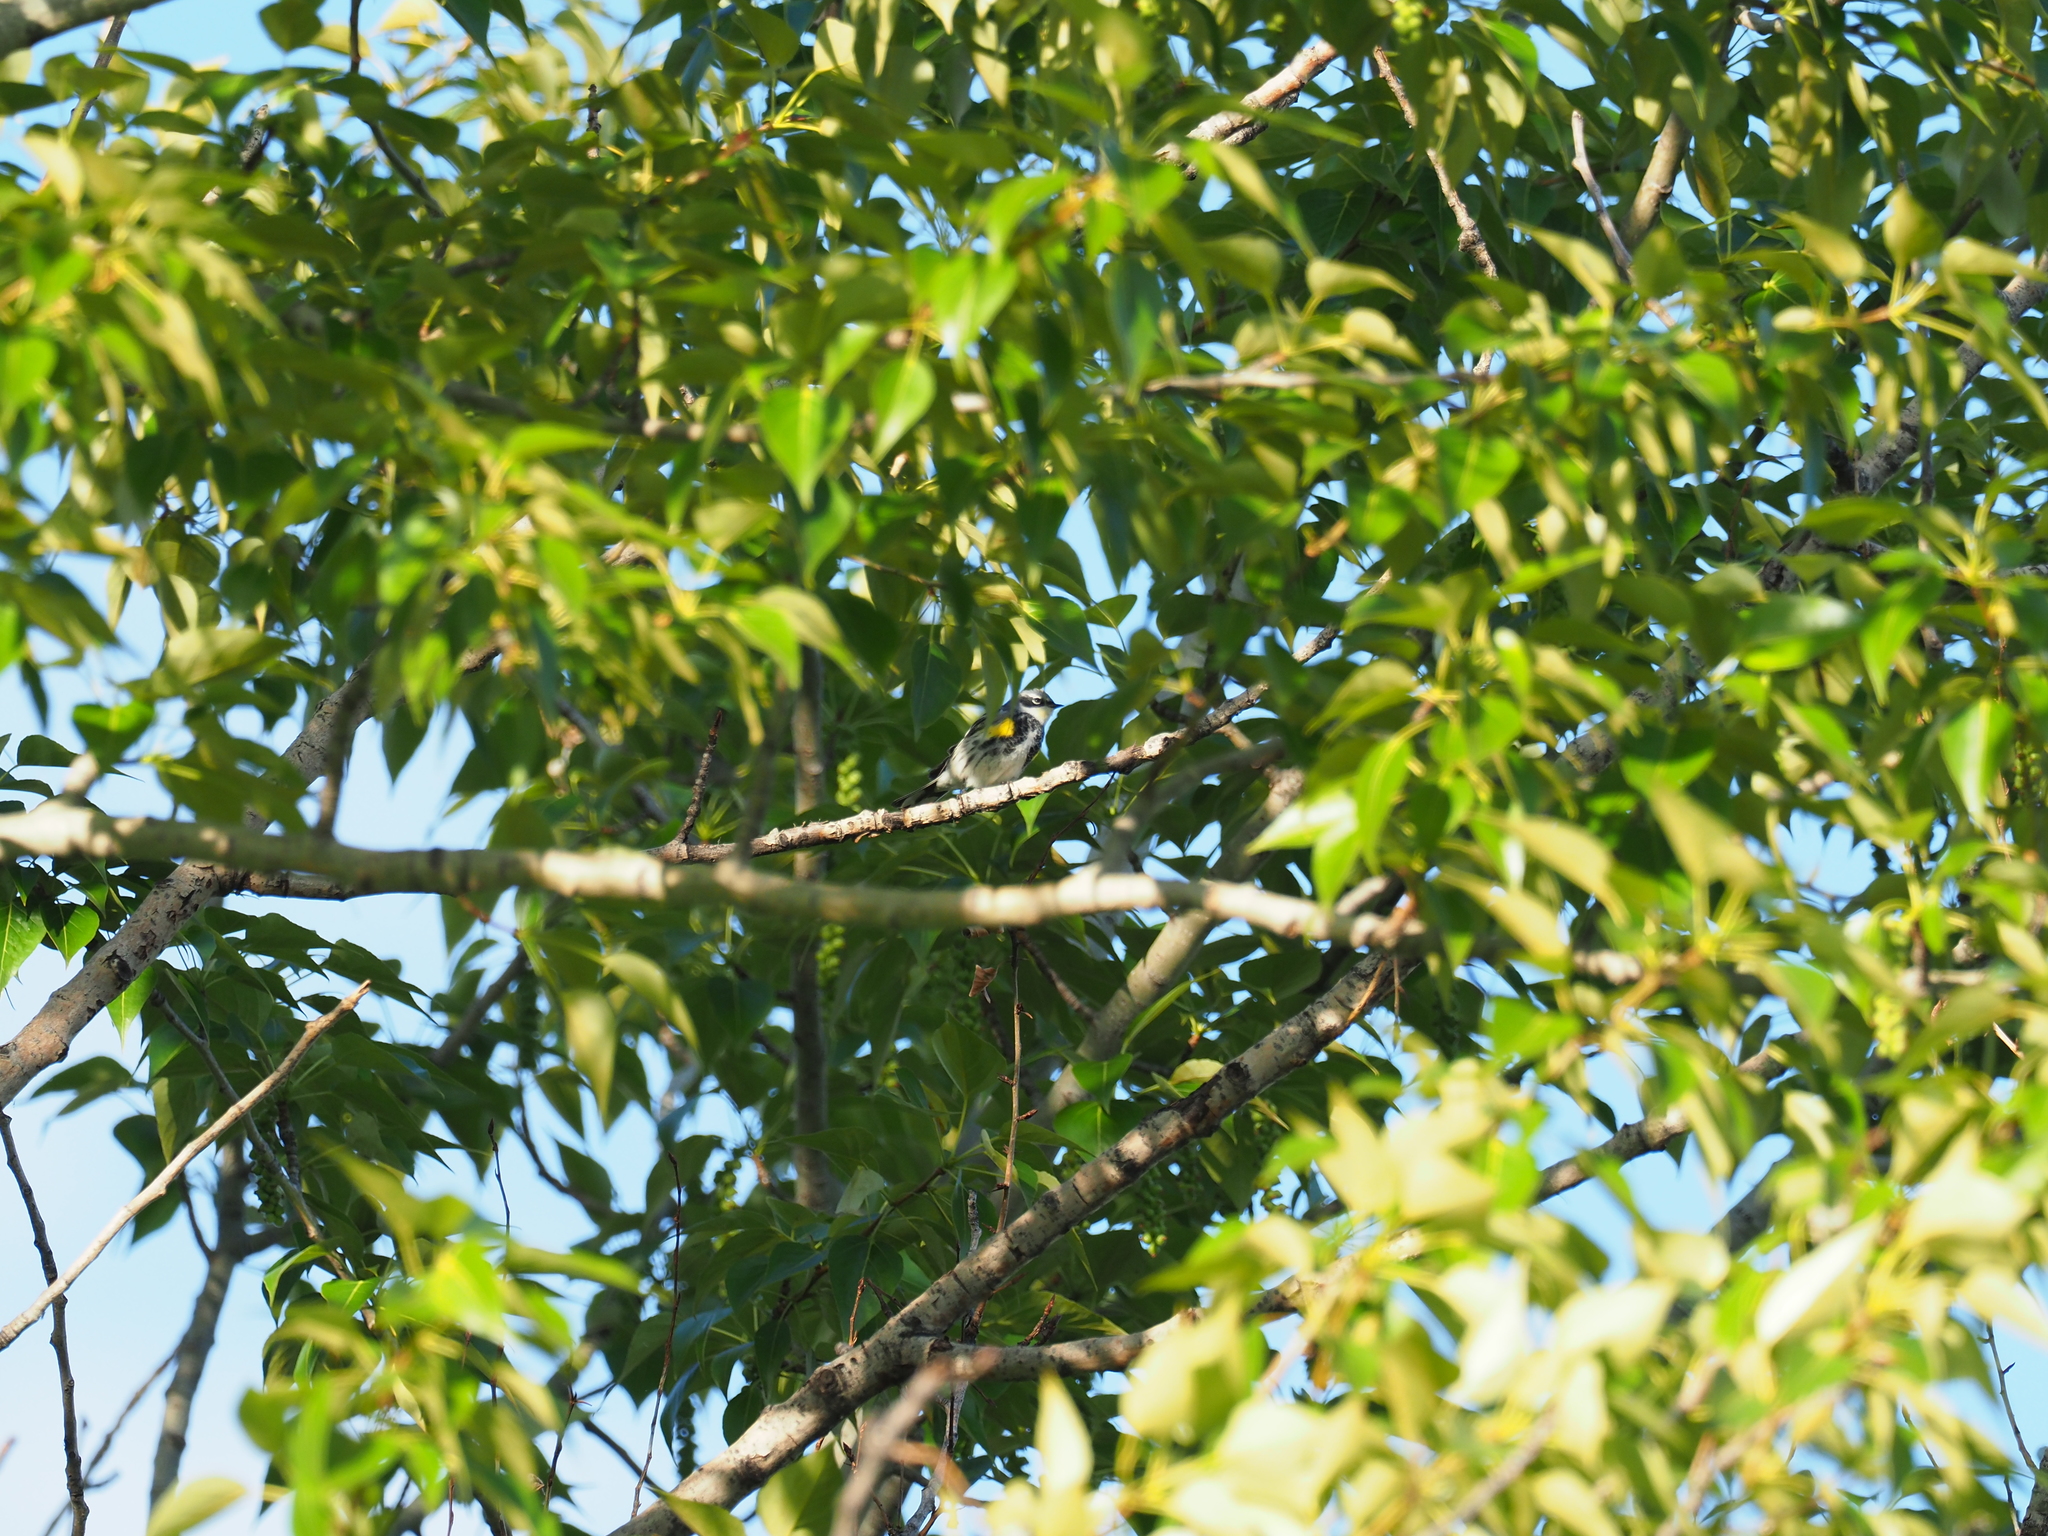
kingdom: Animalia
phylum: Chordata
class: Aves
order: Passeriformes
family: Parulidae
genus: Setophaga
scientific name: Setophaga
